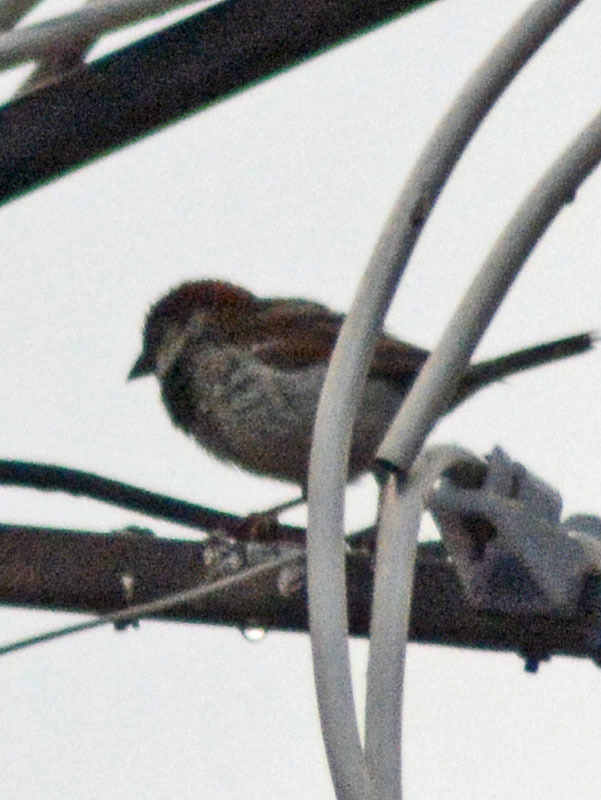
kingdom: Animalia
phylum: Chordata
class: Aves
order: Passeriformes
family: Passeridae
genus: Passer
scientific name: Passer domesticus
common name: House sparrow
